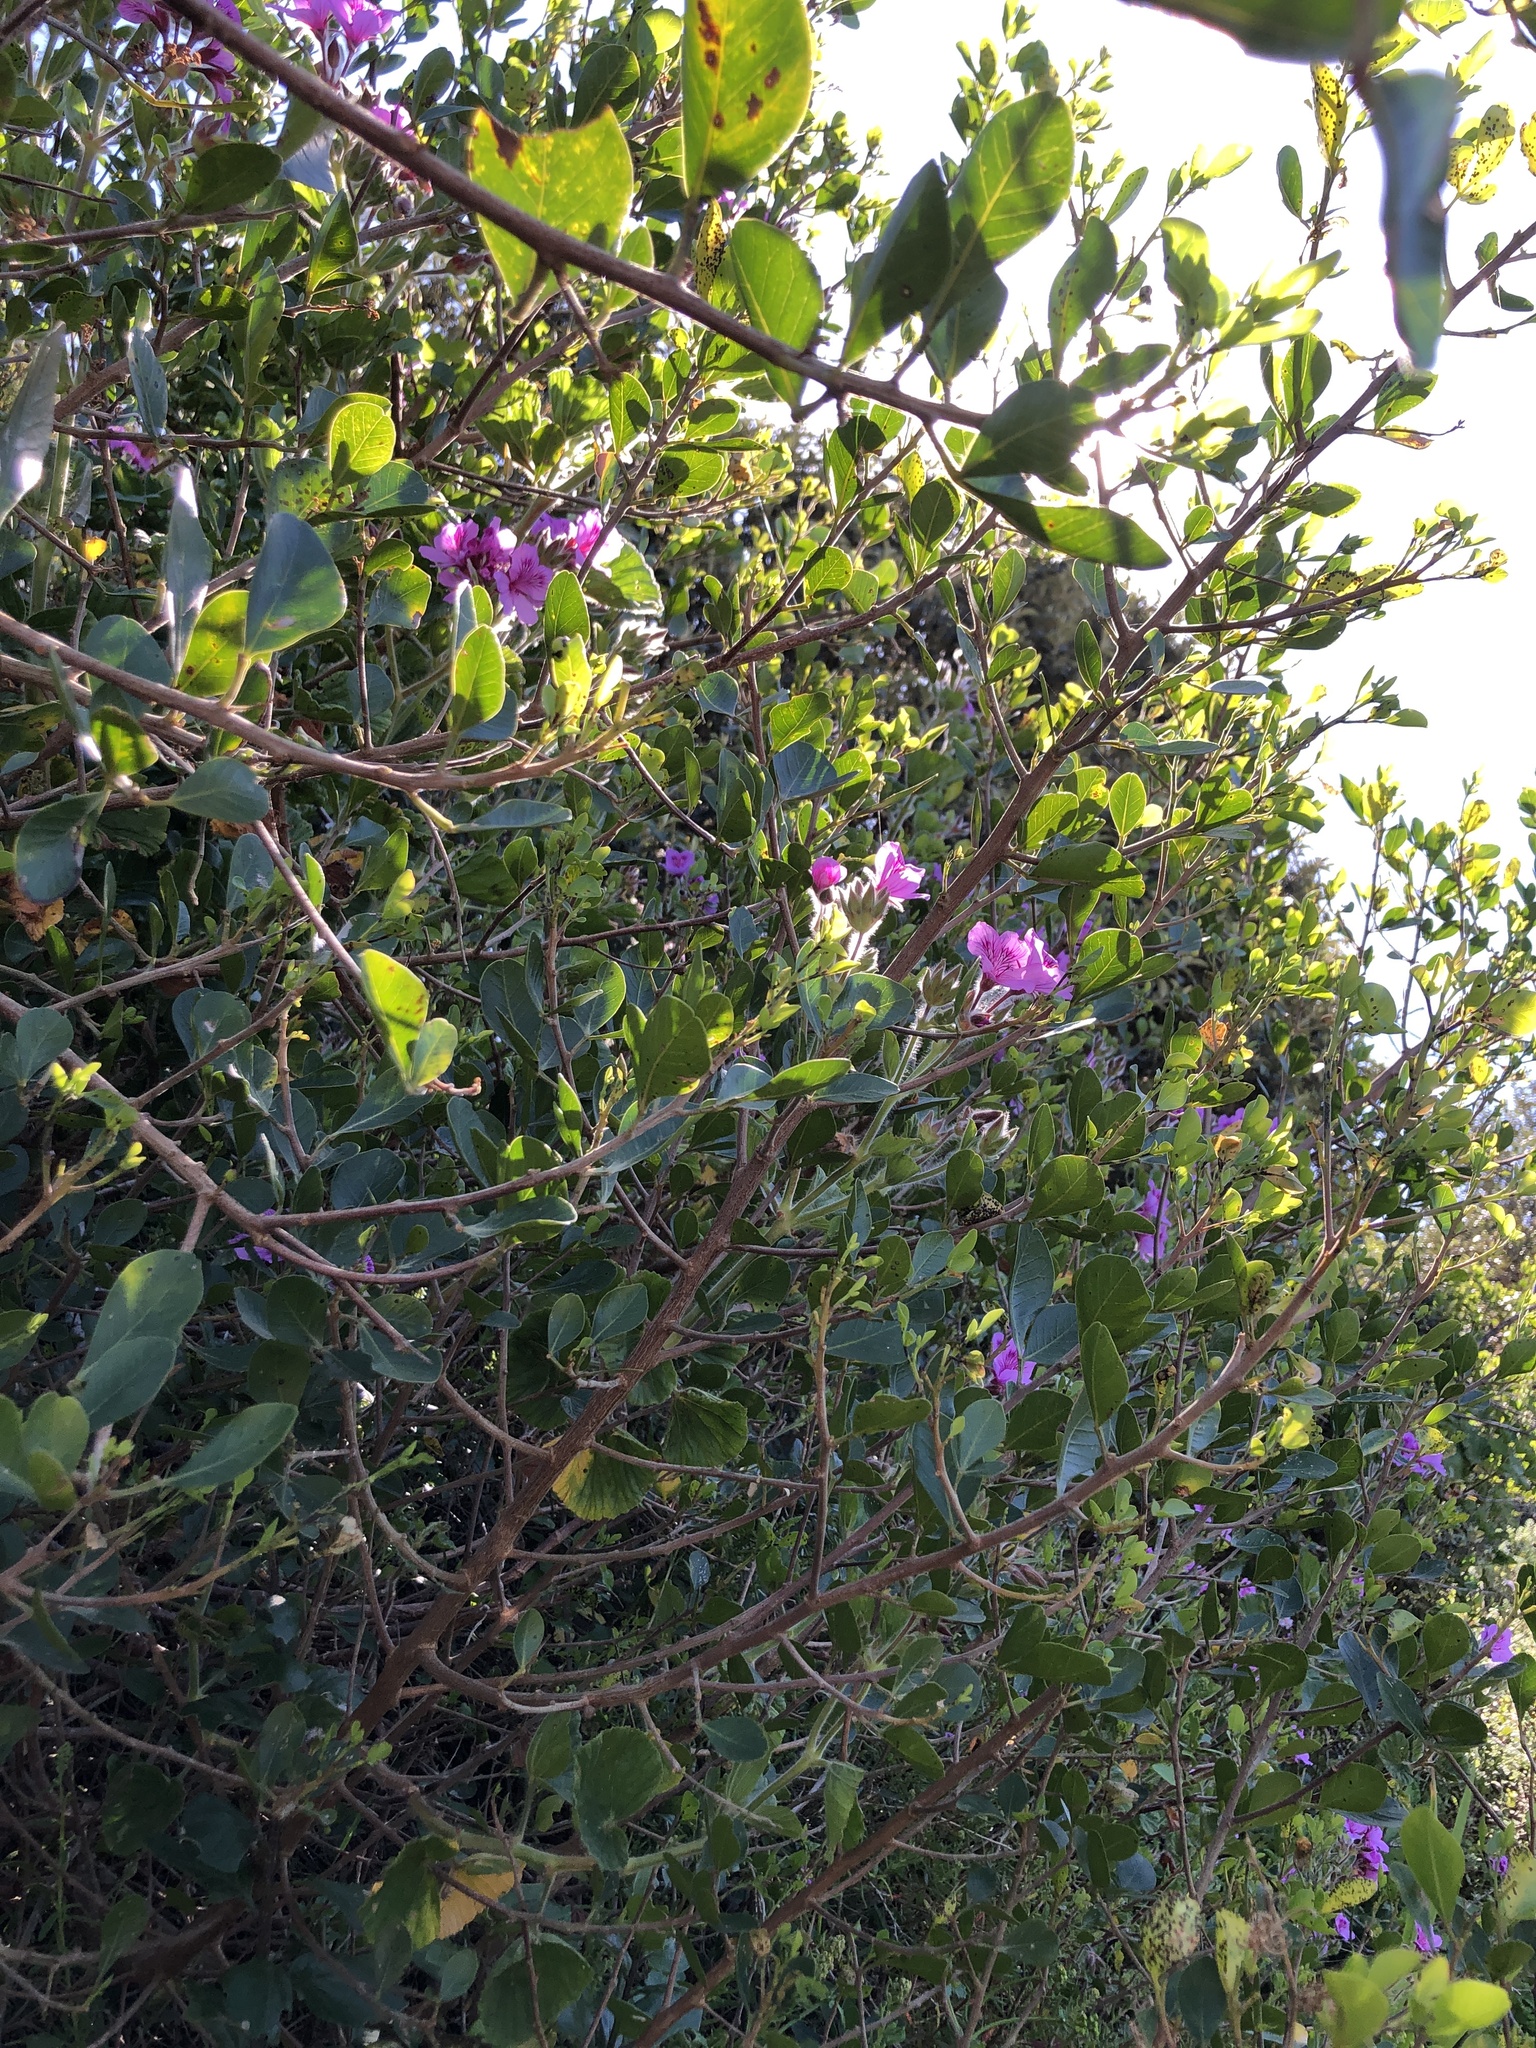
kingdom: Plantae
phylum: Tracheophyta
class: Magnoliopsida
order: Geraniales
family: Geraniaceae
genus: Pelargonium
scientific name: Pelargonium cucullatum
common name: Tree pelargonium
